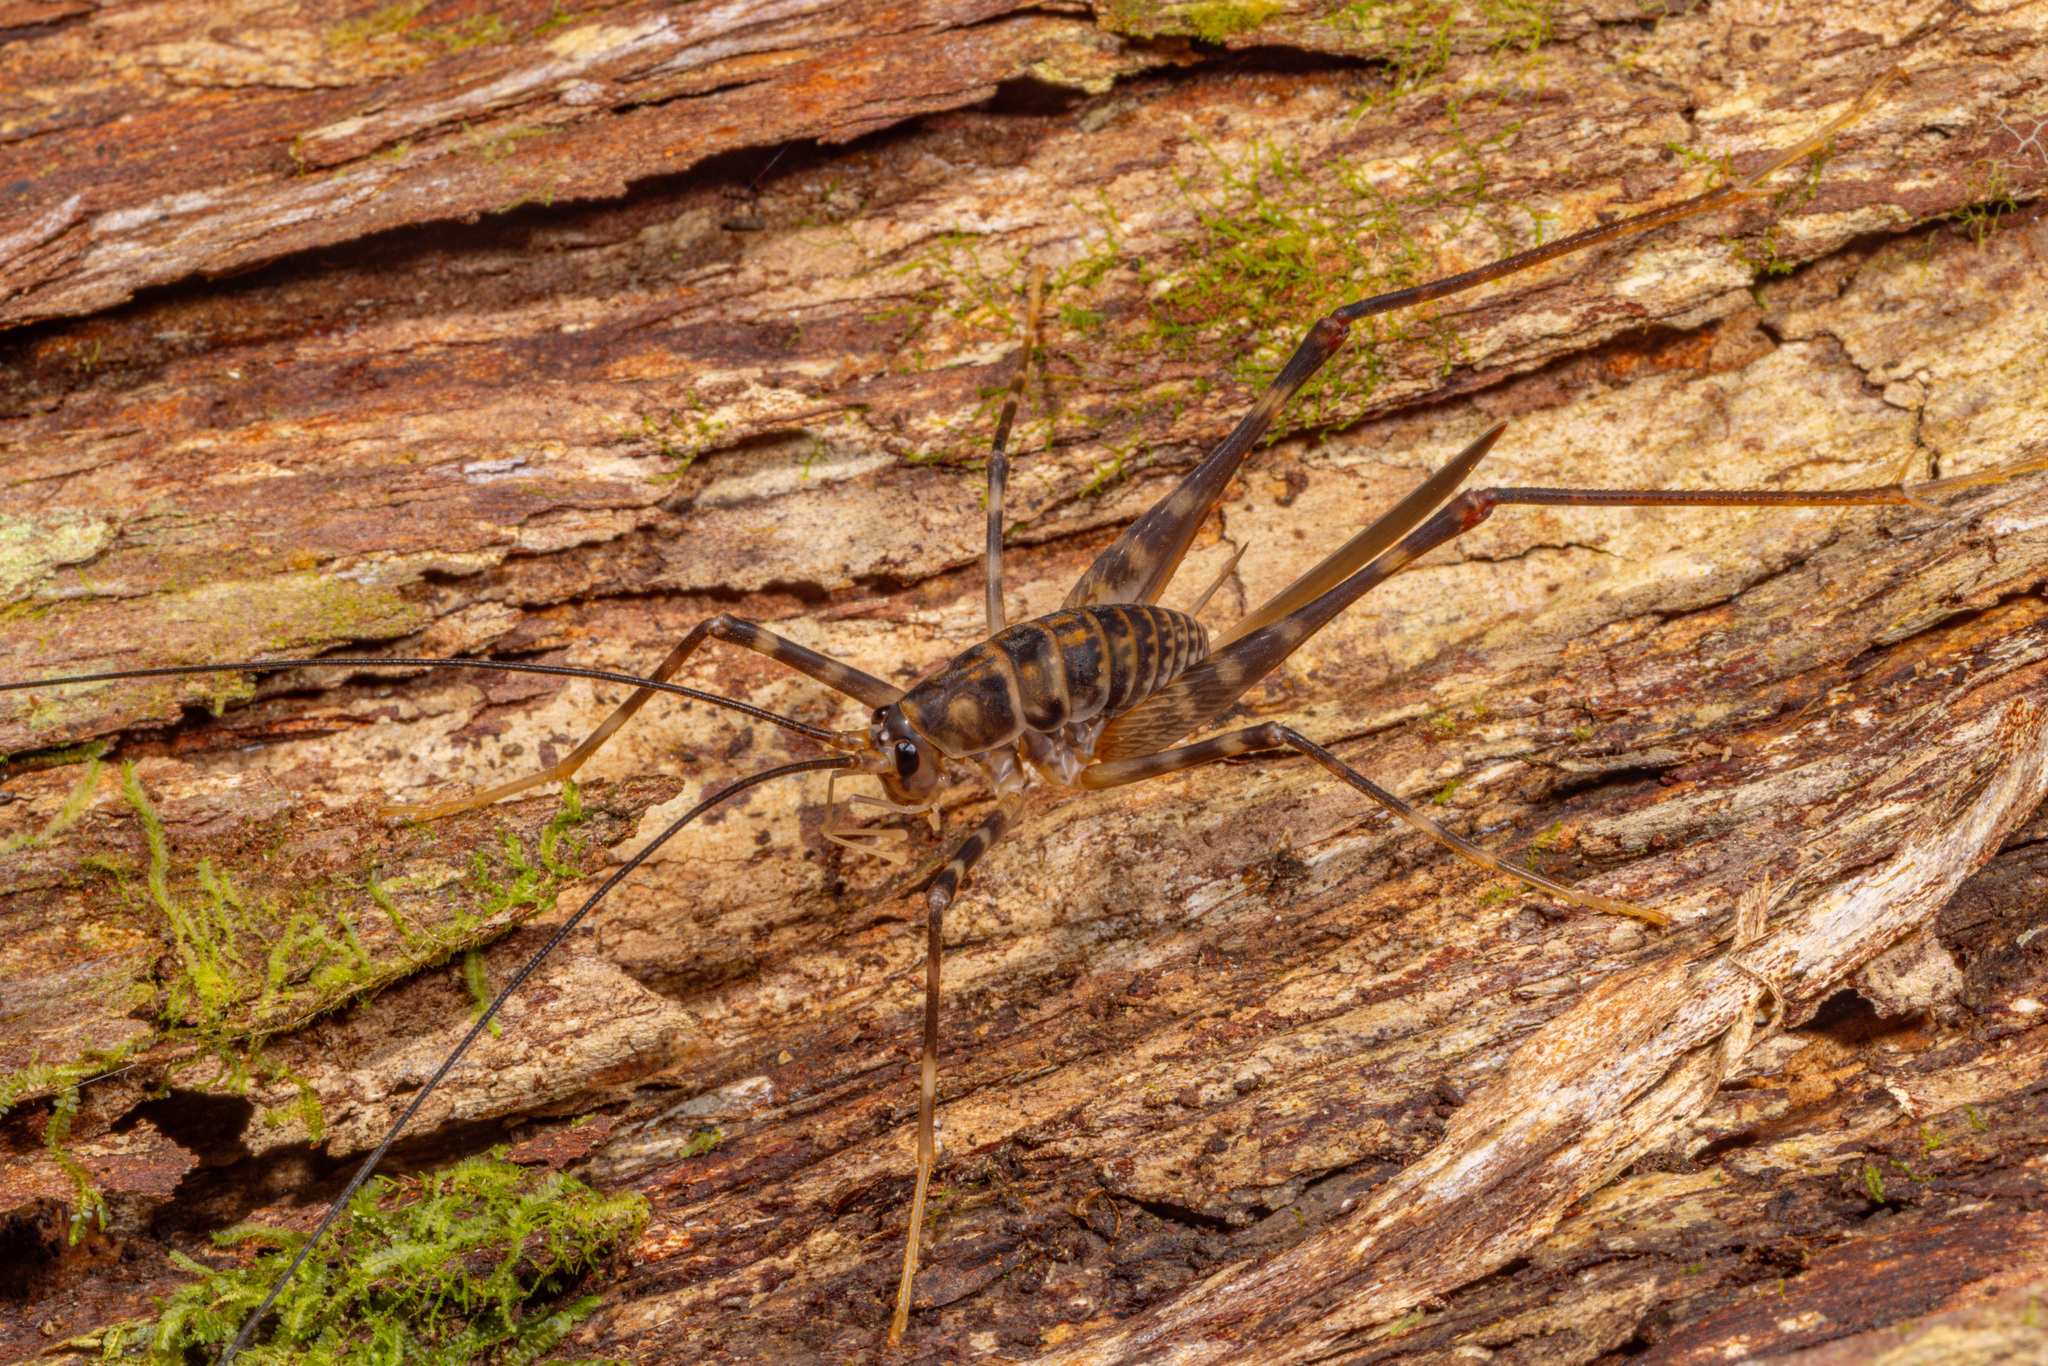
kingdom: Animalia
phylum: Arthropoda
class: Insecta
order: Orthoptera
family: Rhaphidophoridae
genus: Pachyrhamma
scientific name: Pachyrhamma acanthocera
